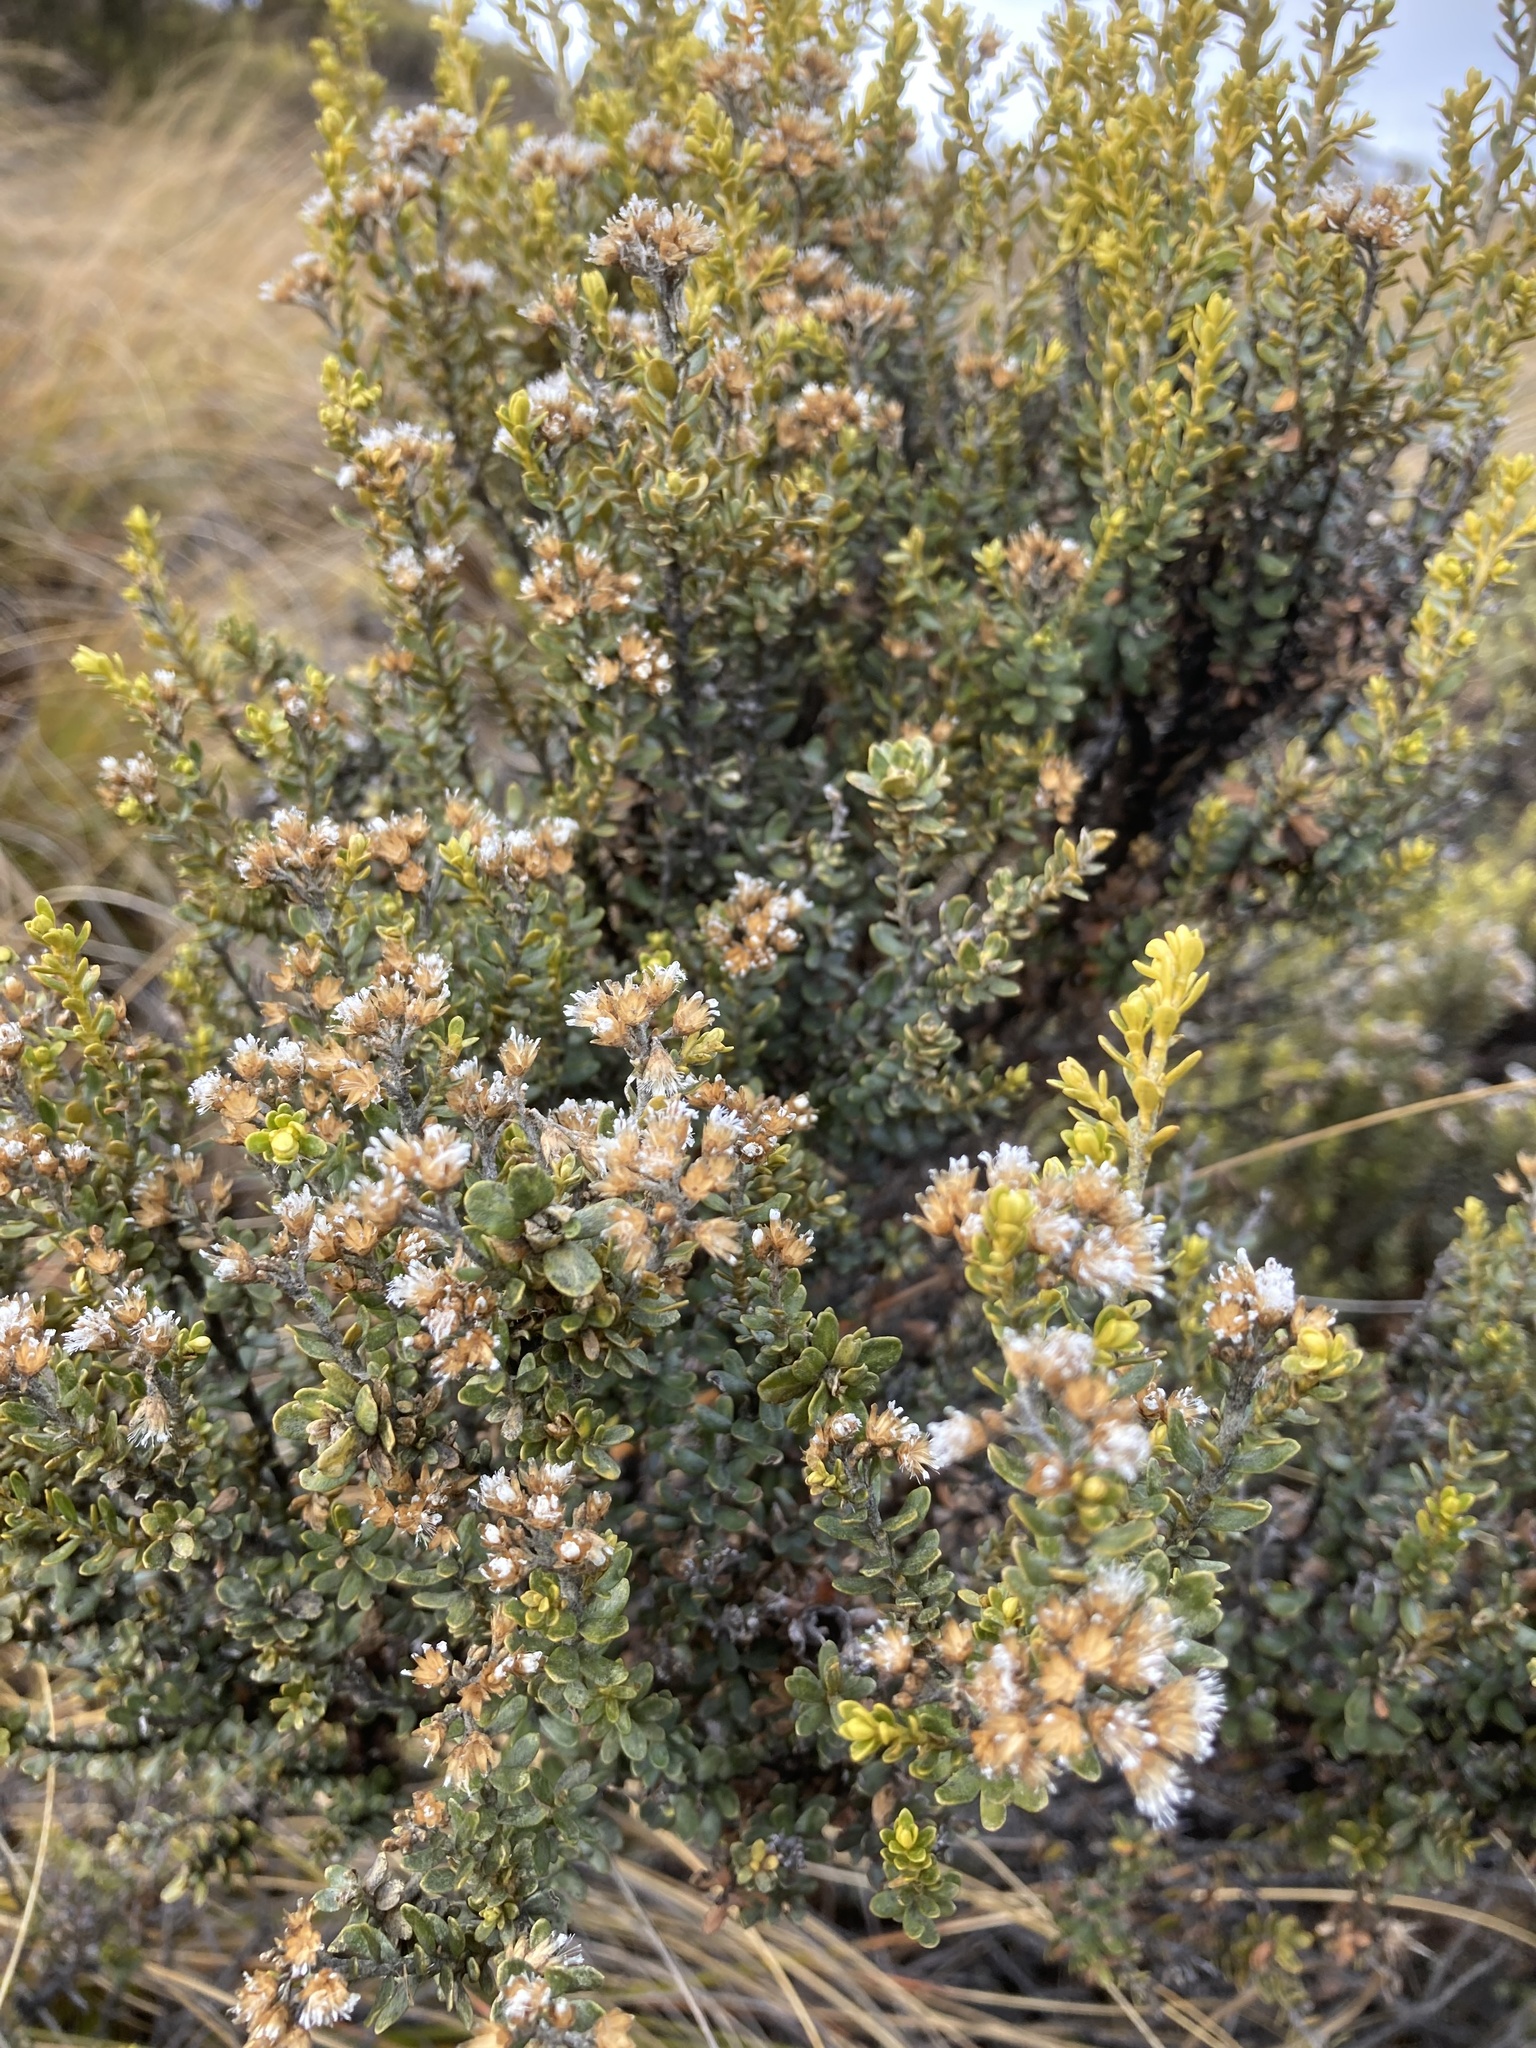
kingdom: Plantae
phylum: Tracheophyta
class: Magnoliopsida
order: Asterales
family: Asteraceae
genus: Ozothamnus
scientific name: Ozothamnus leptophyllus
